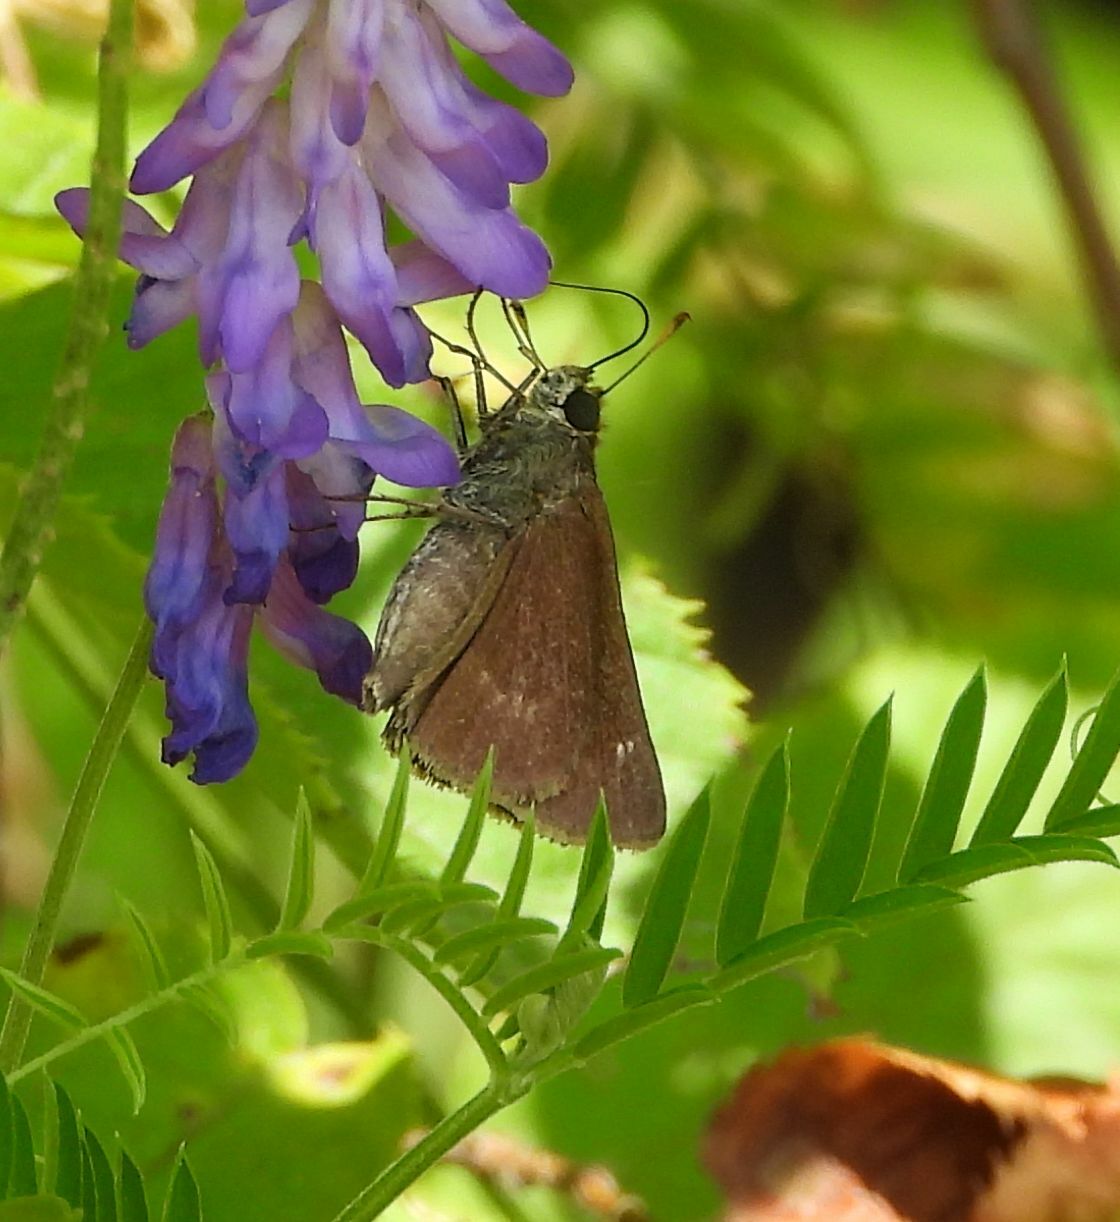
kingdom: Animalia
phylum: Arthropoda
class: Insecta
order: Lepidoptera
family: Hesperiidae
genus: Euphyes
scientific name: Euphyes vestris
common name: Dun skipper
